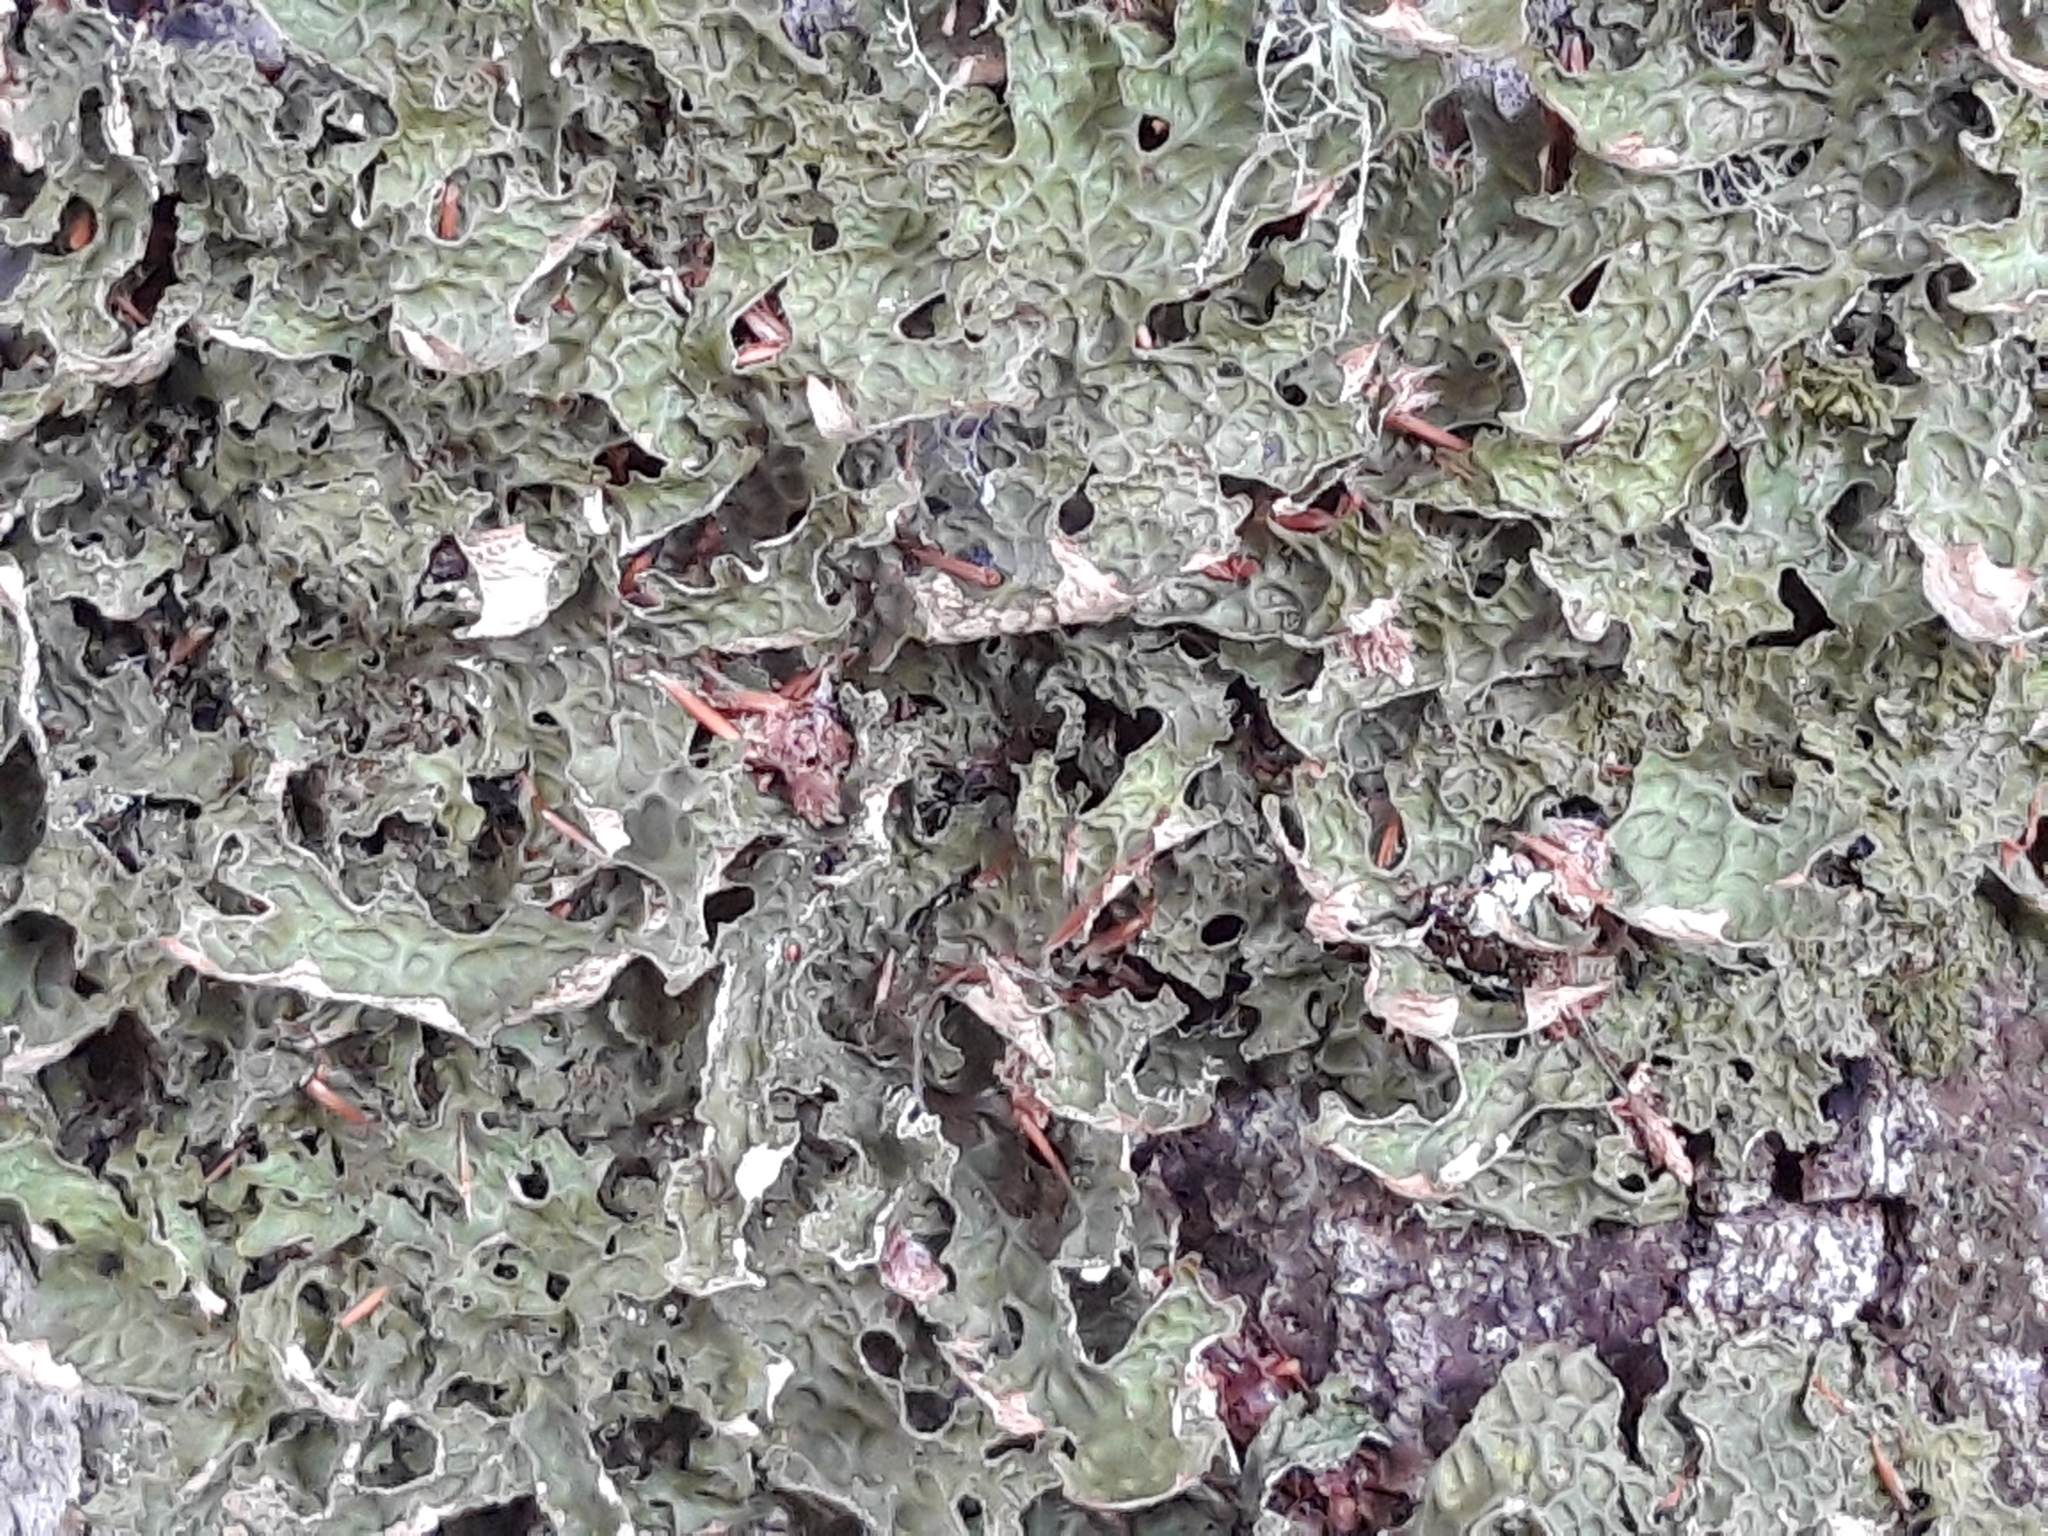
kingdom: Fungi
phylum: Ascomycota
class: Lecanoromycetes
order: Peltigerales
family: Lobariaceae
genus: Lobaria
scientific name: Lobaria pulmonaria
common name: Lungwort
